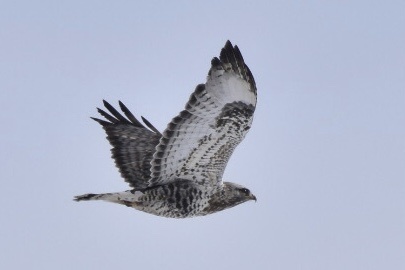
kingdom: Animalia
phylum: Chordata
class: Aves
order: Accipitriformes
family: Accipitridae
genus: Buteo
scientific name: Buteo lagopus
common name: Rough-legged buzzard
